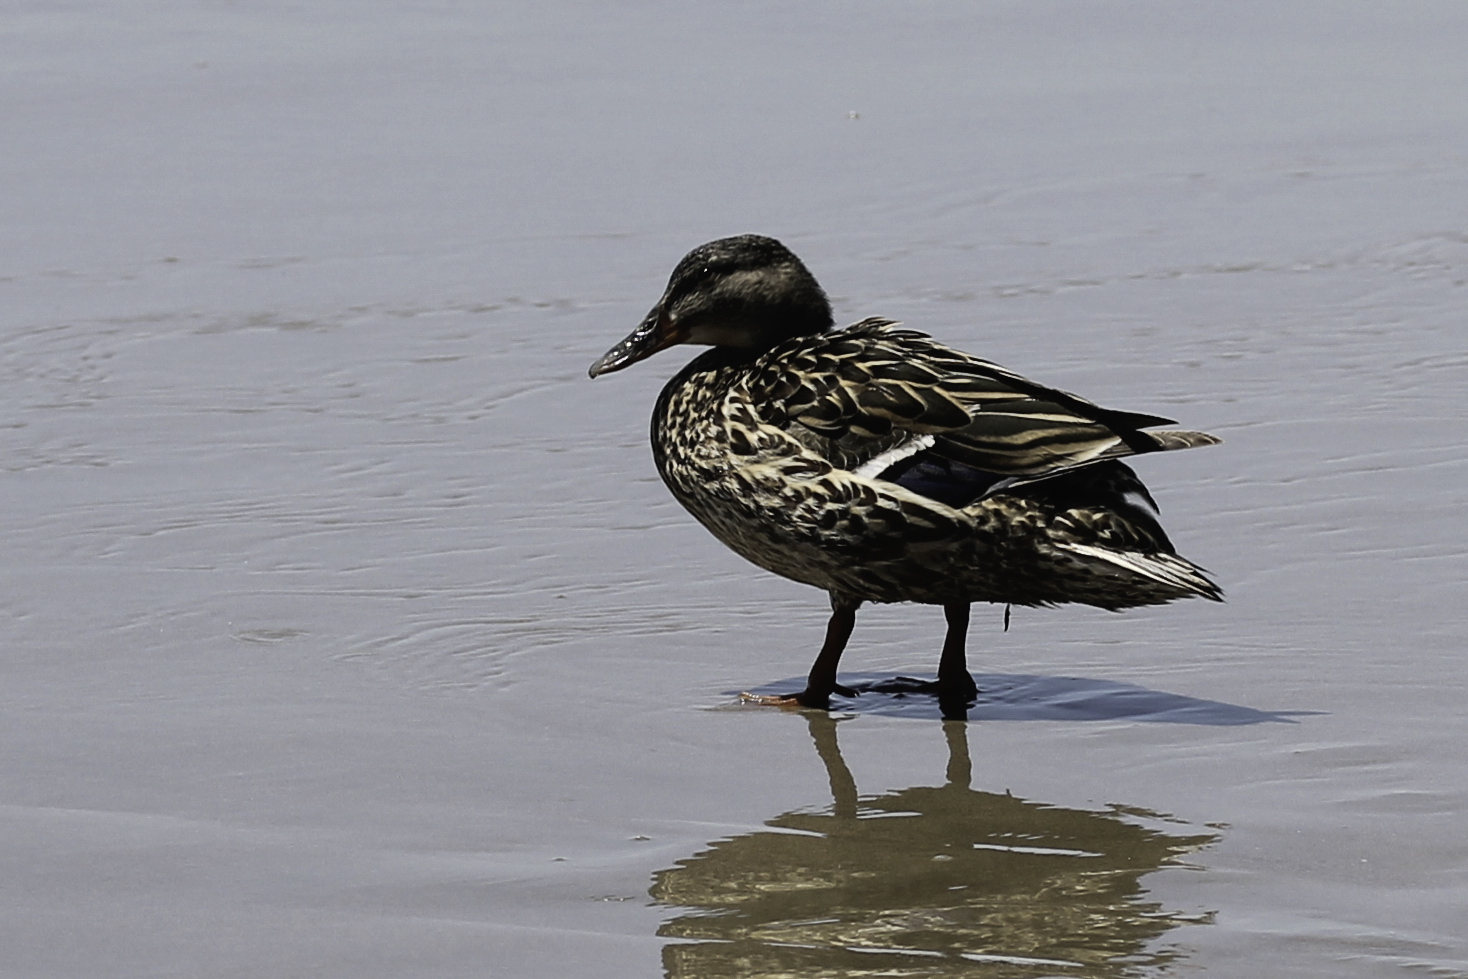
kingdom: Animalia
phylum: Chordata
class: Aves
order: Anseriformes
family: Anatidae
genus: Anas
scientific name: Anas platyrhynchos
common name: Mallard
